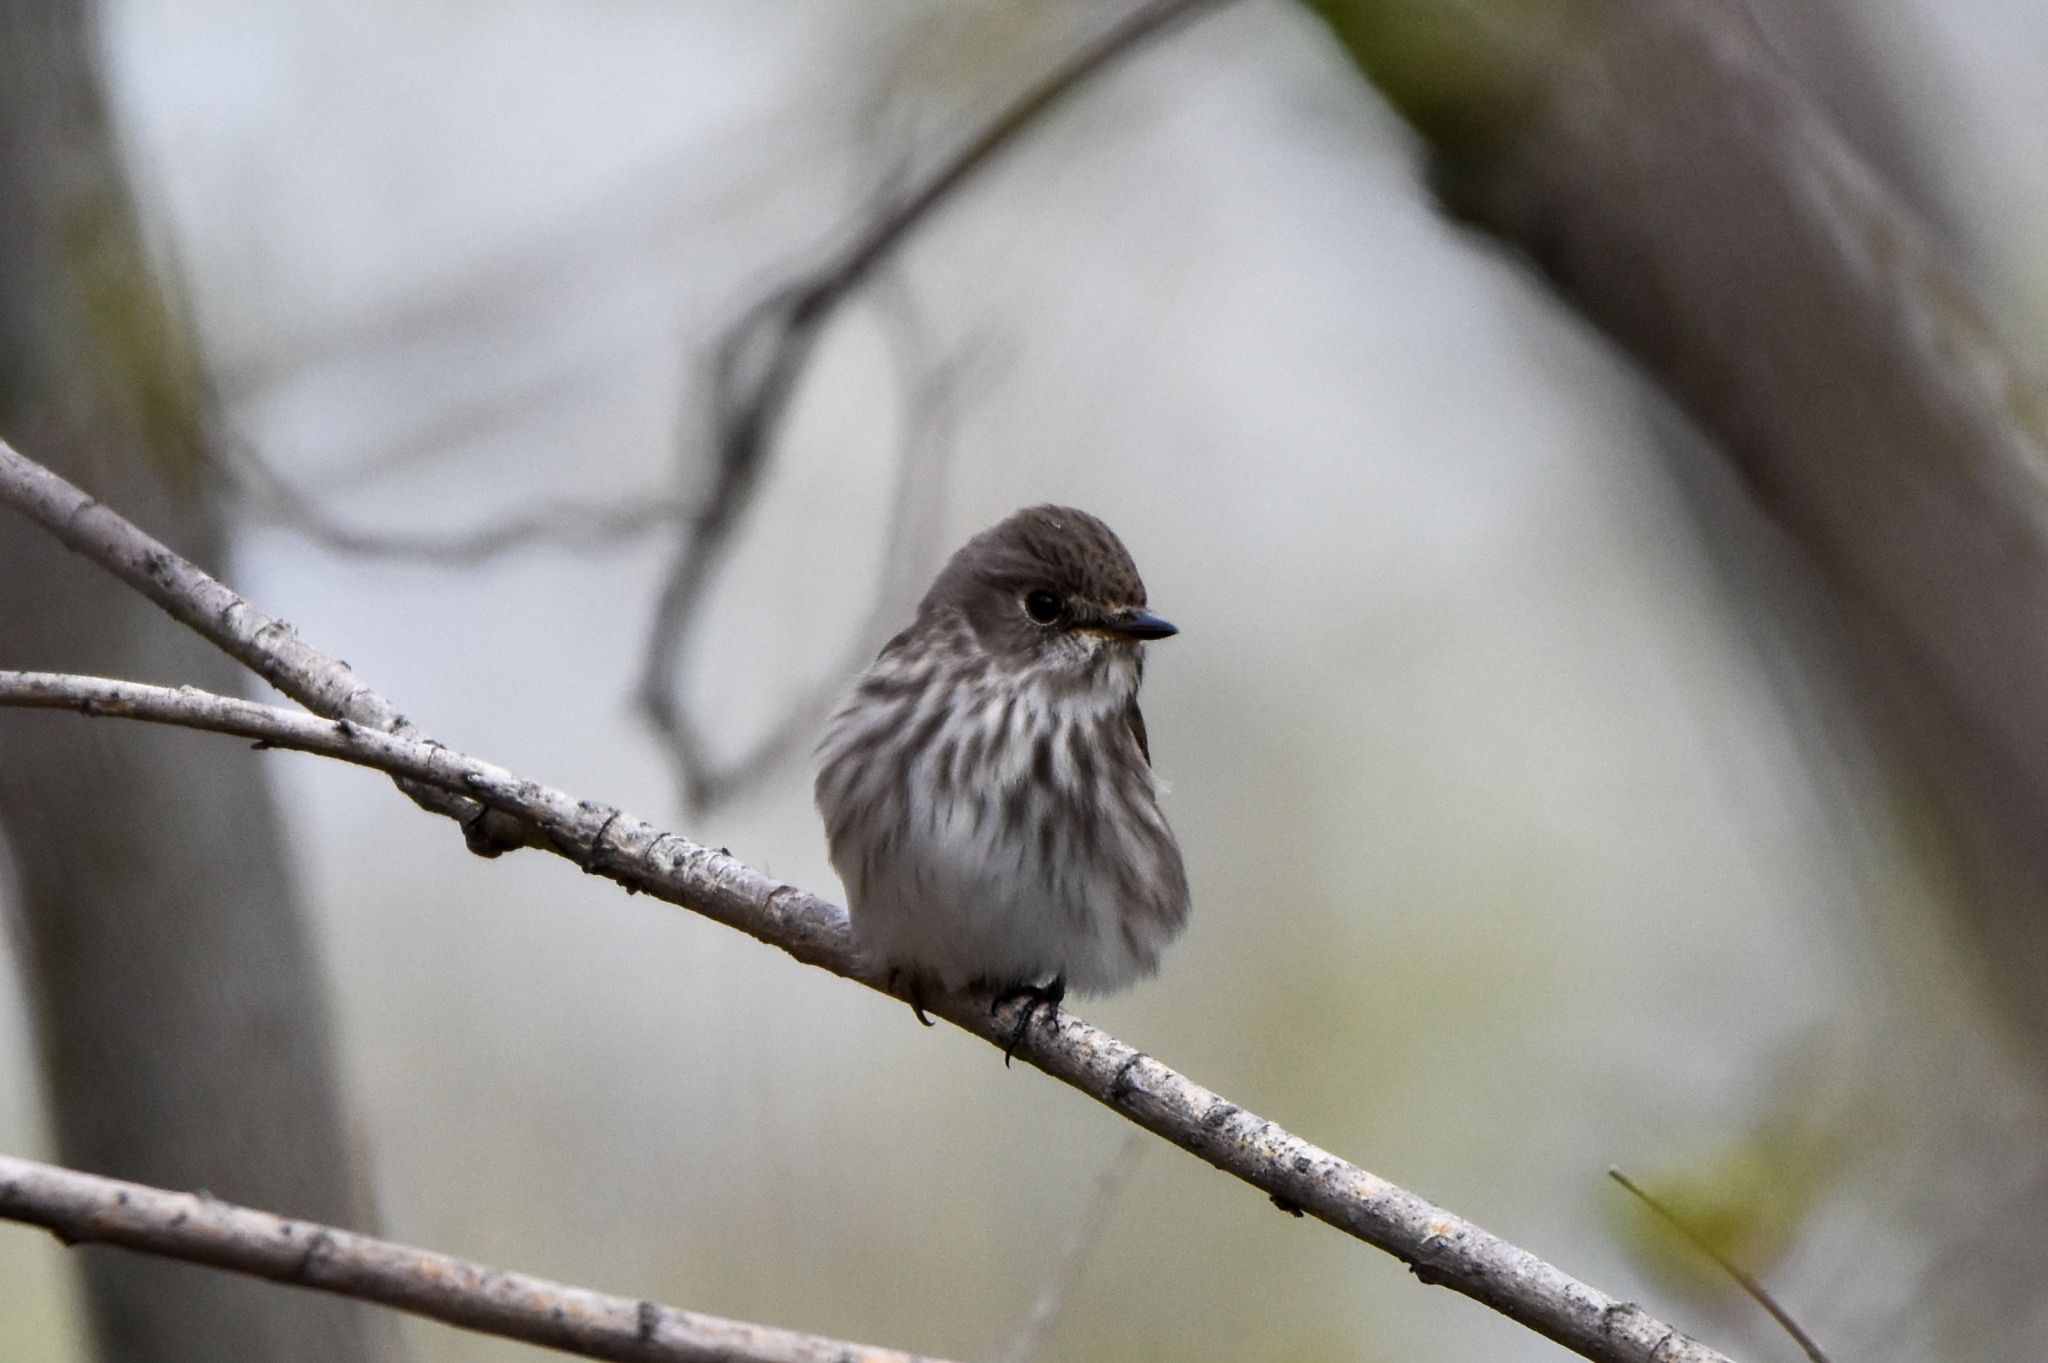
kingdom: Animalia
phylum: Chordata
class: Aves
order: Passeriformes
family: Muscicapidae
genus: Muscicapa
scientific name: Muscicapa griseisticta
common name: Gray-streaked flycatcher
